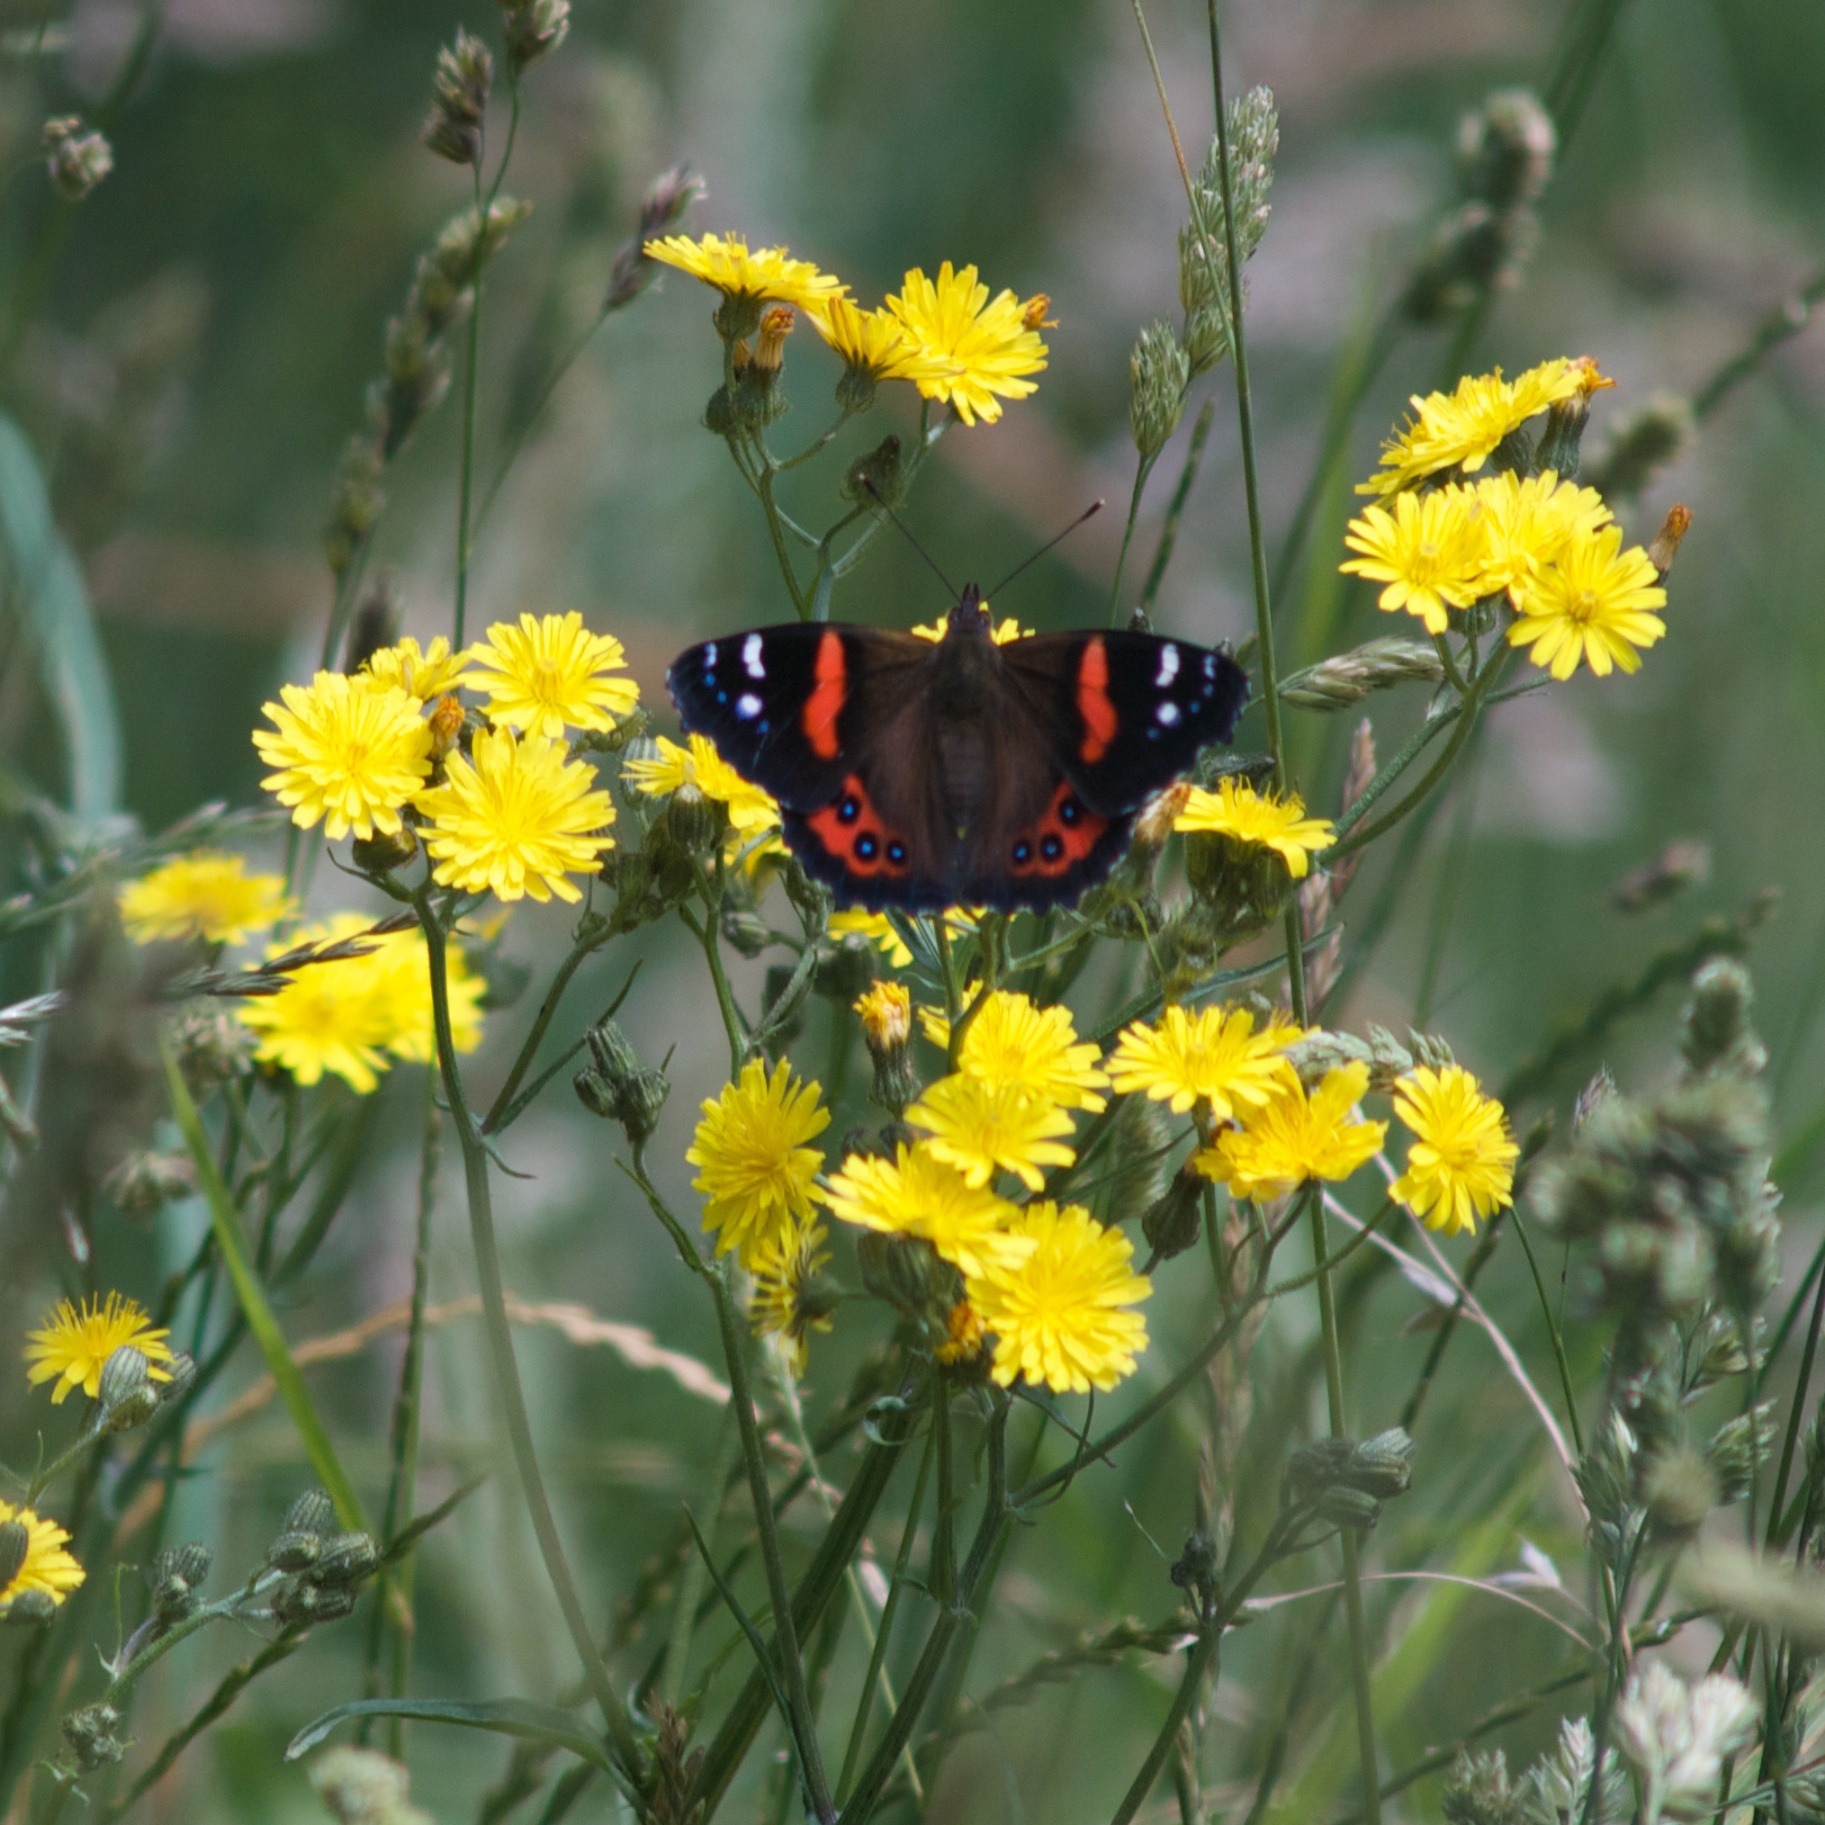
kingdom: Animalia
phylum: Arthropoda
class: Insecta
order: Lepidoptera
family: Nymphalidae
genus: Vanessa
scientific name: Vanessa gonerilla
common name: New zealand red admiral
